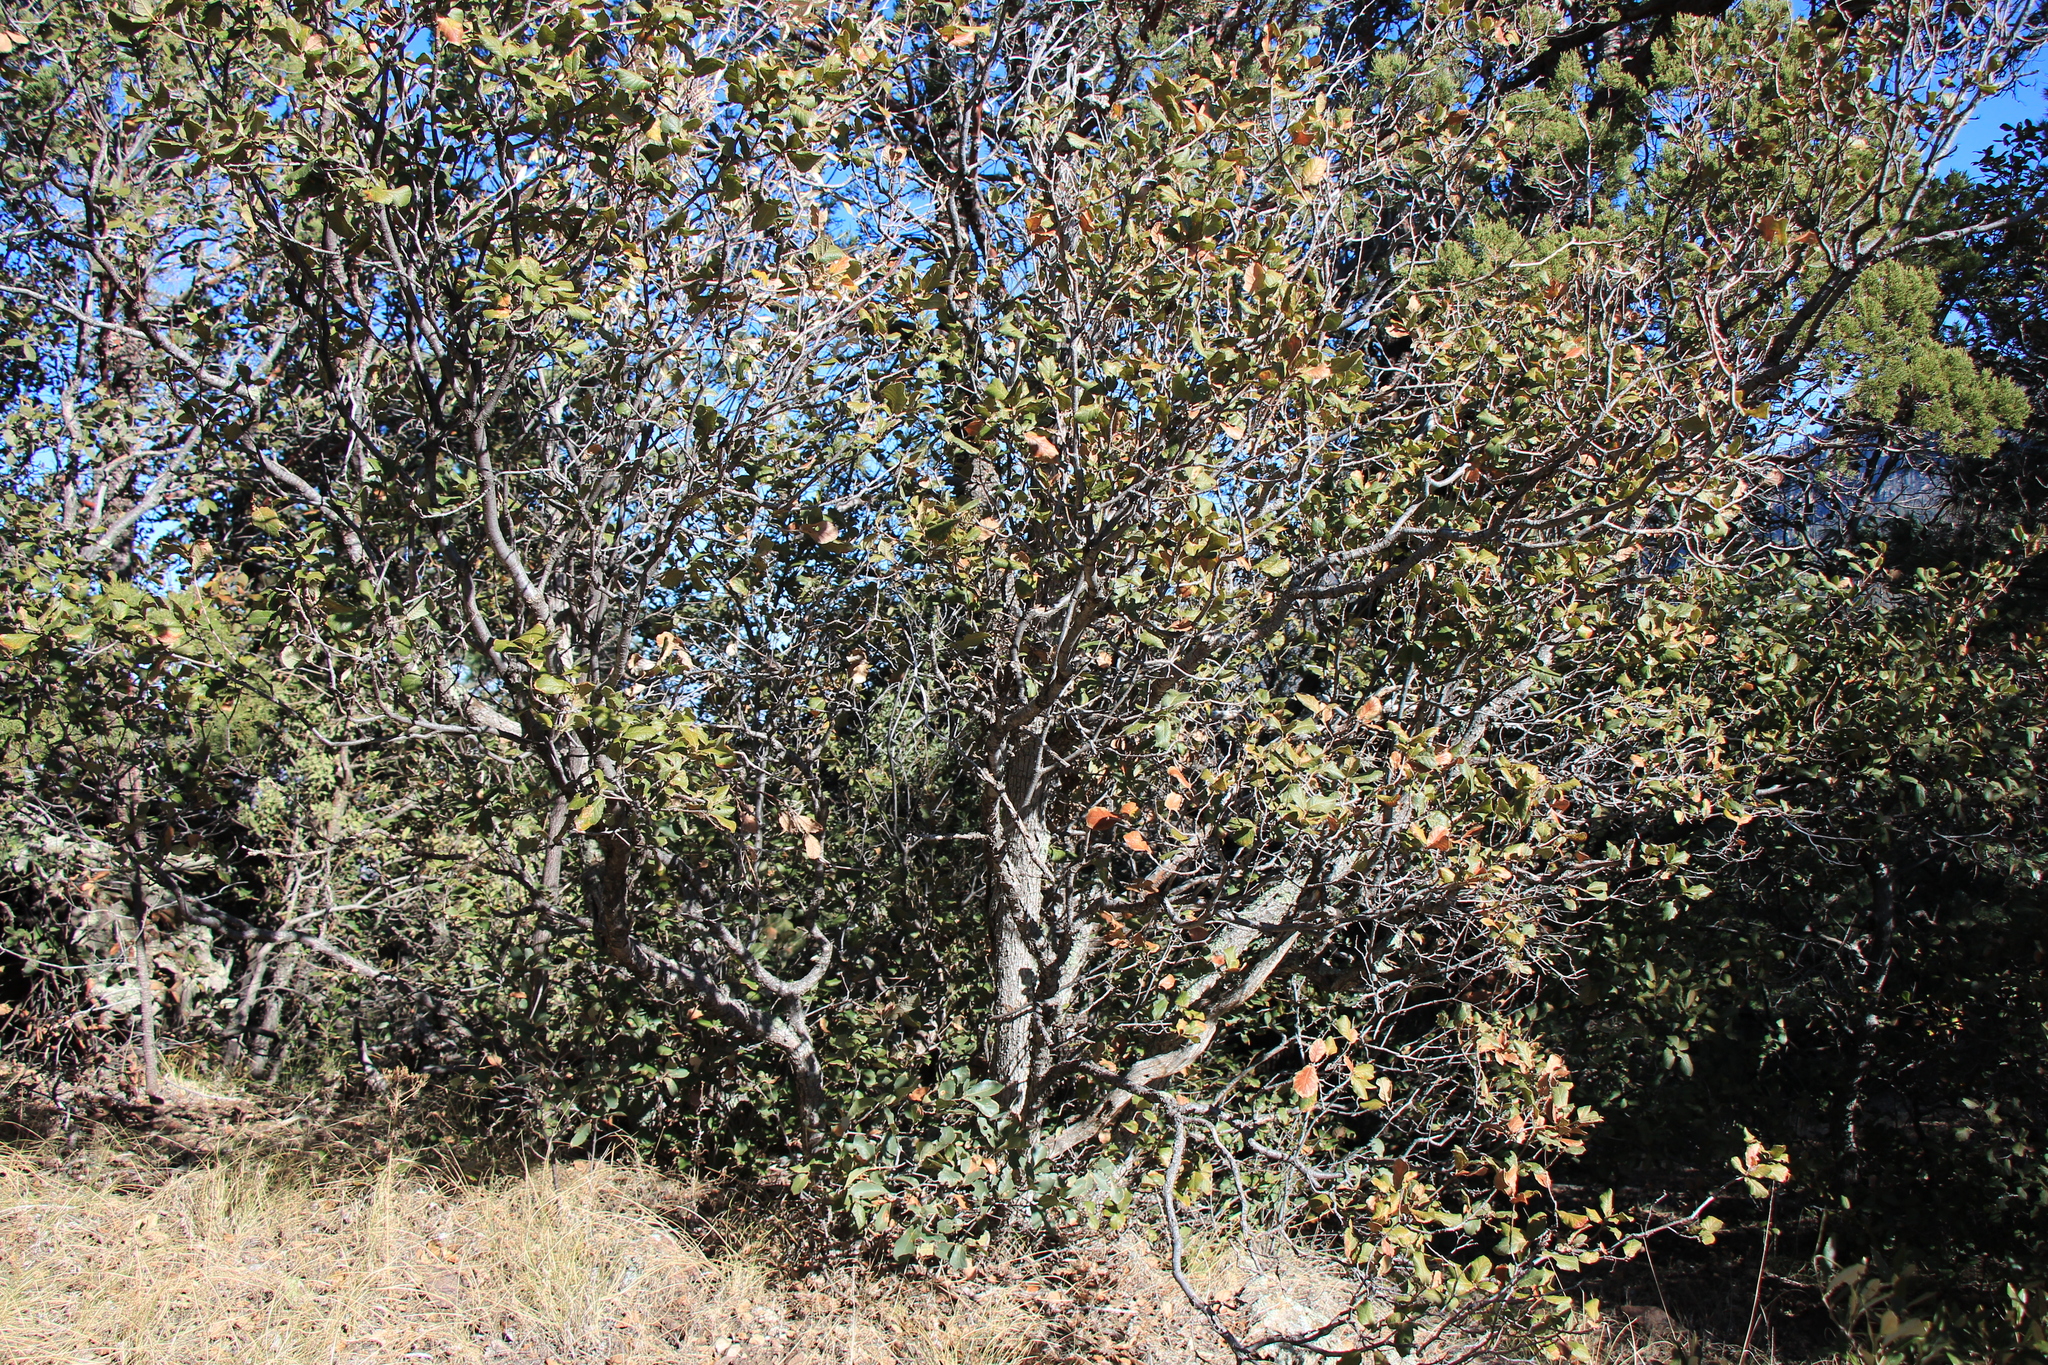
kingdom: Plantae
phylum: Tracheophyta
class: Magnoliopsida
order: Fagales
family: Fagaceae
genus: Quercus
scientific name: Quercus rugosa
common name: Netleaf oak
